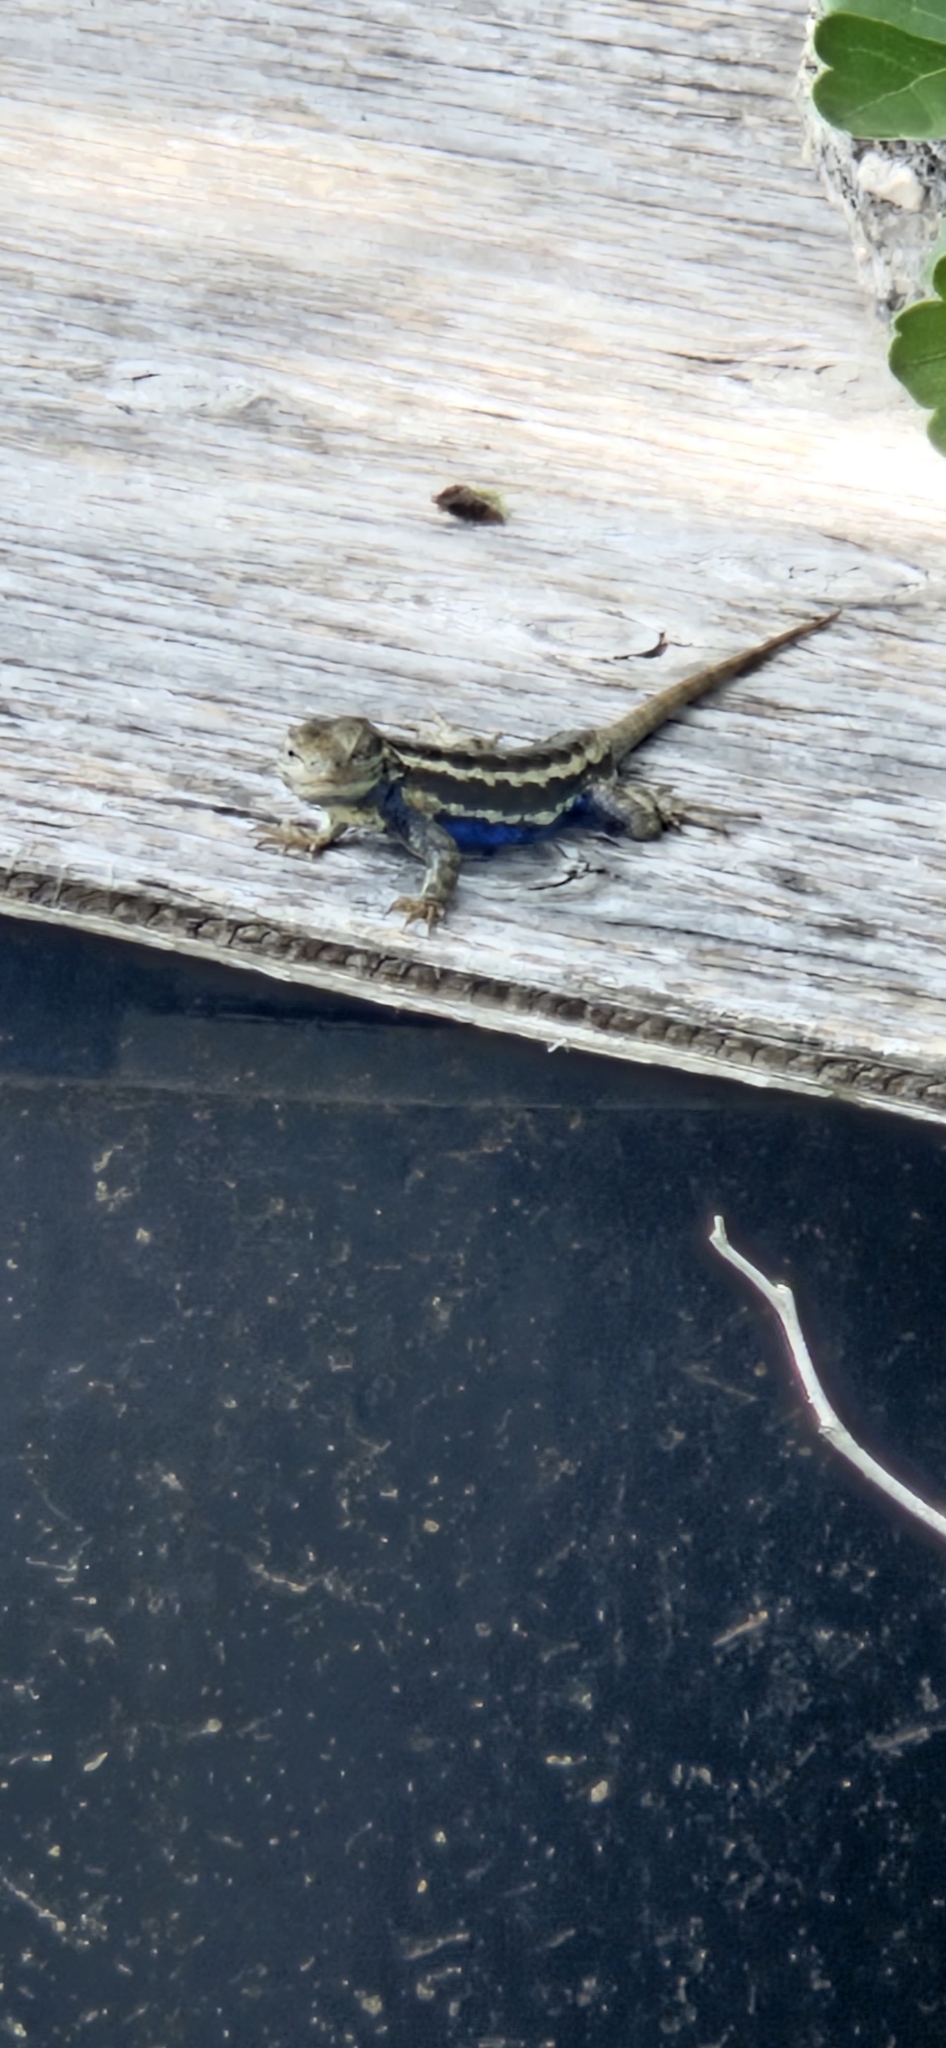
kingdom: Animalia
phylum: Chordata
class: Squamata
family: Phrynosomatidae
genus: Sceloporus
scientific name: Sceloporus consobrinus
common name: Southern prairie lizard
